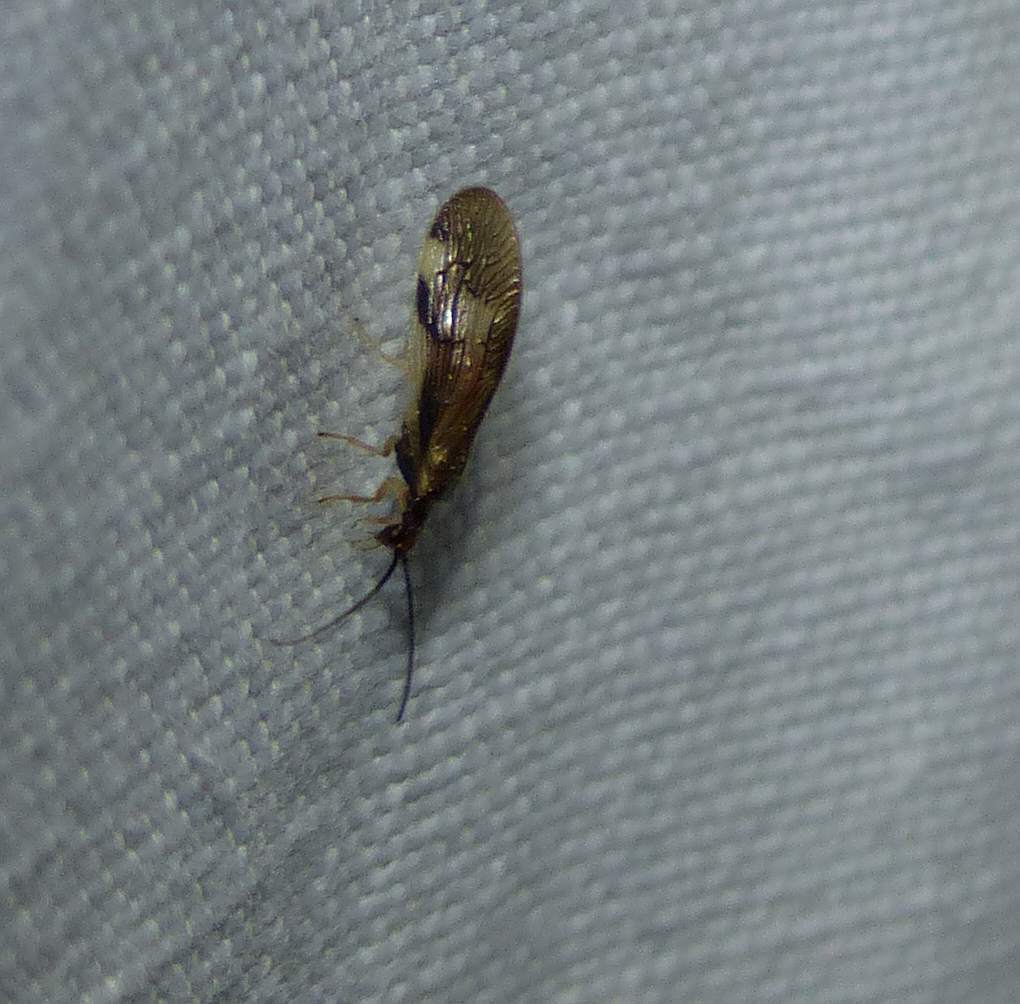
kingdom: Animalia
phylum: Arthropoda
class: Insecta
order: Neuroptera
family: Sisyridae
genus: Climacia
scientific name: Climacia areolaris
